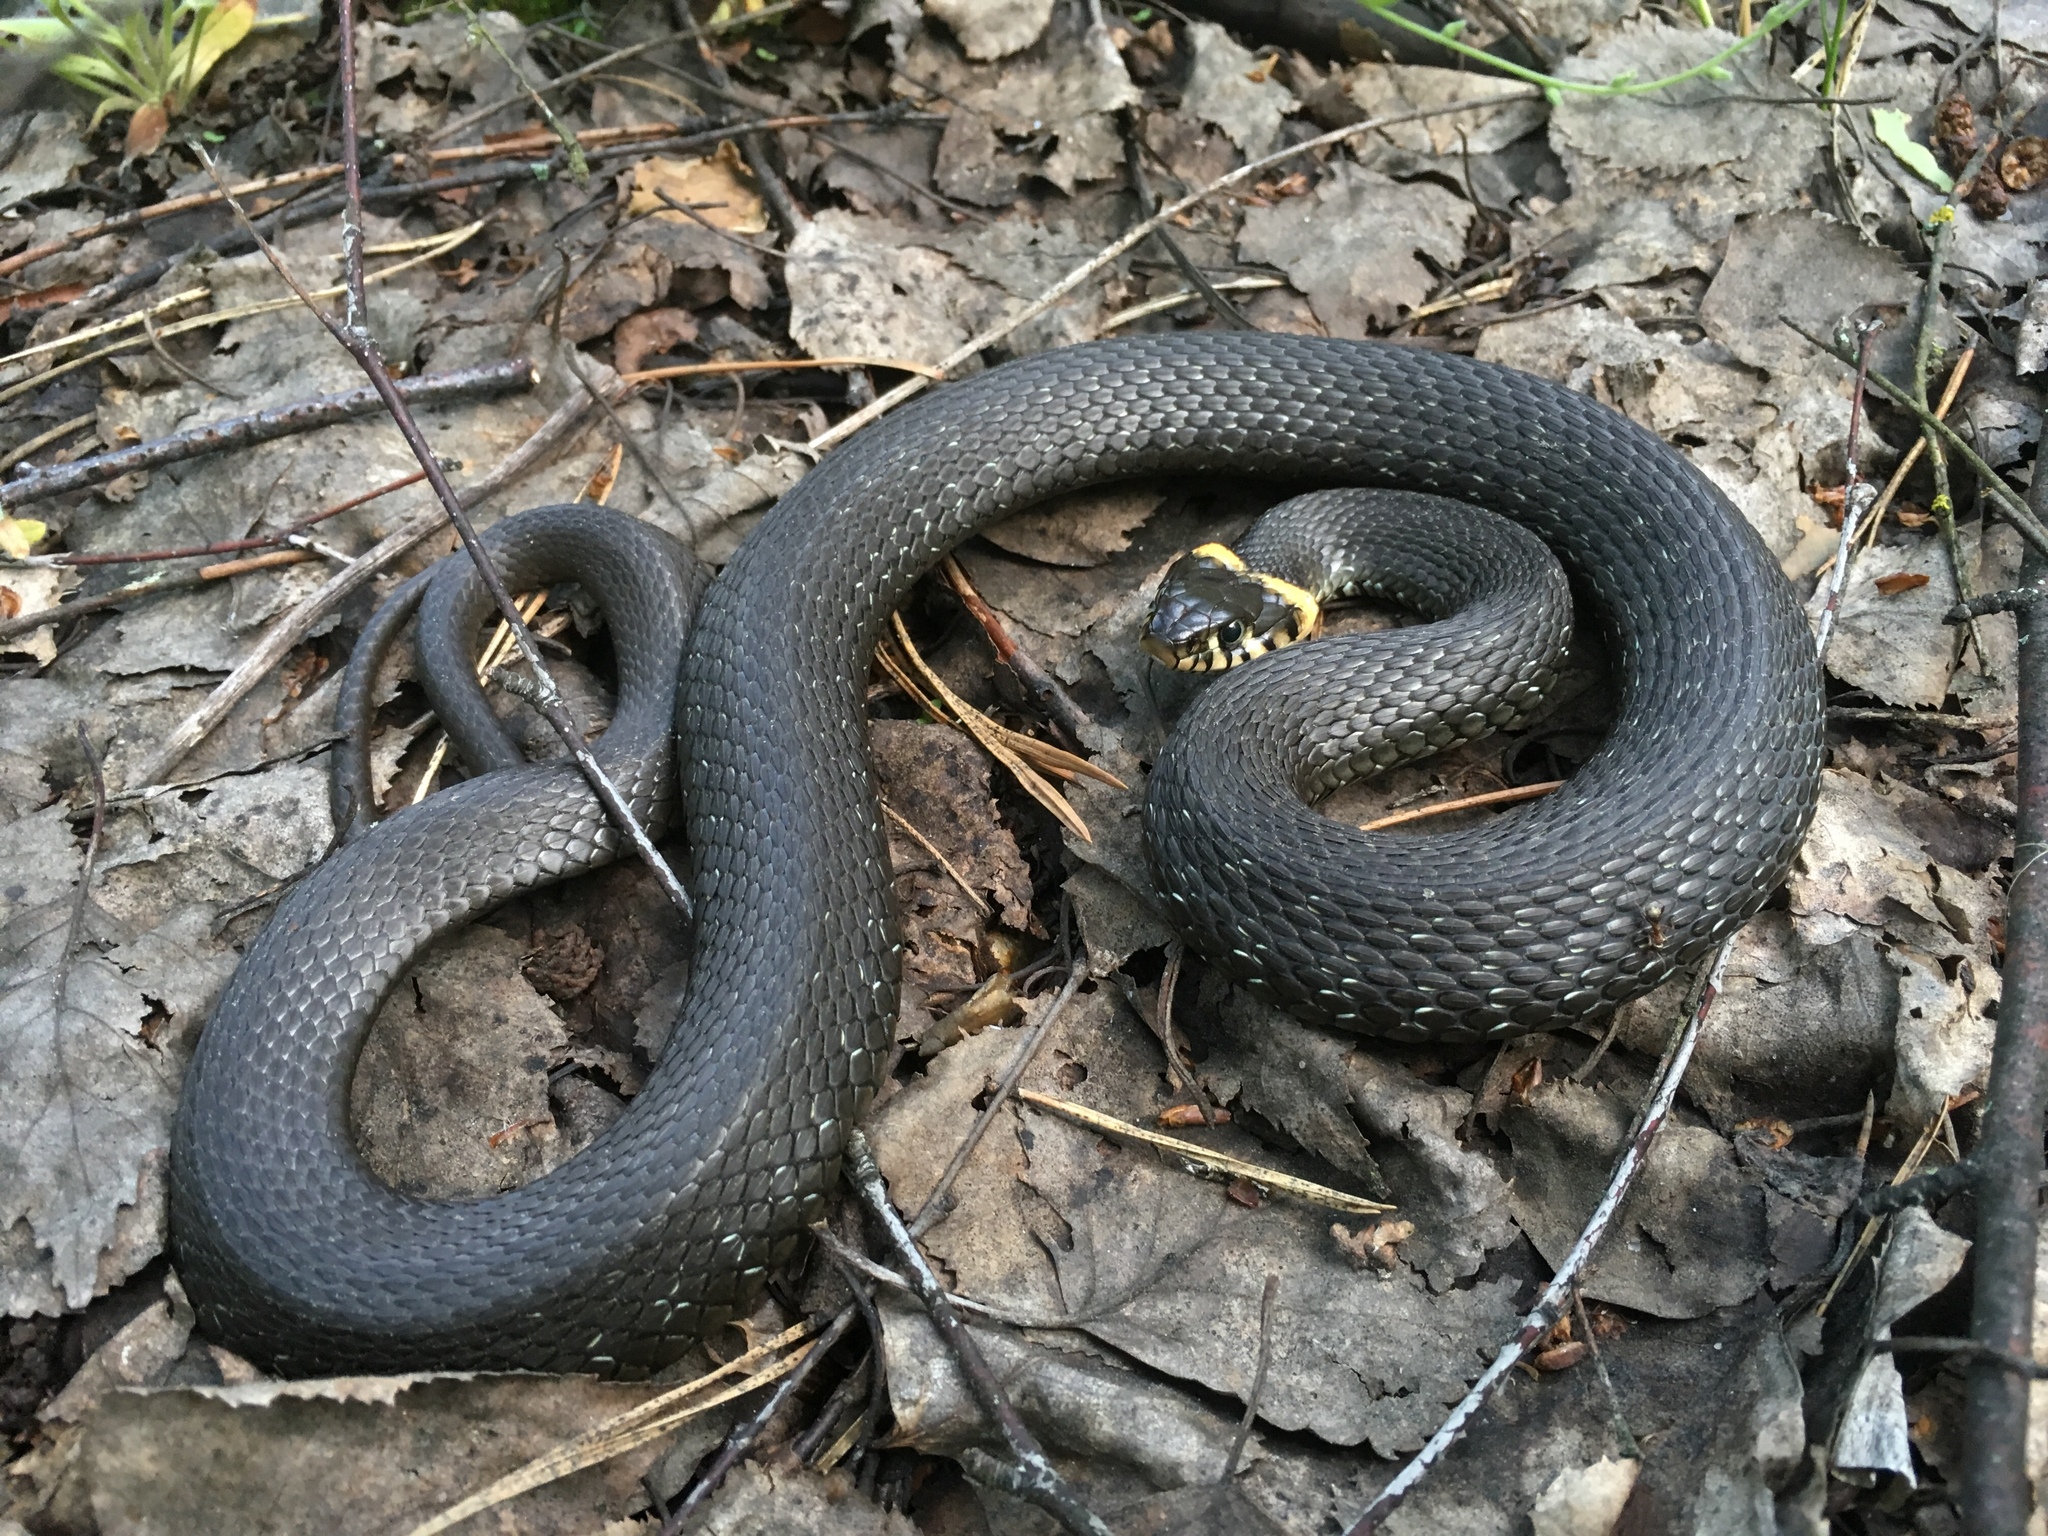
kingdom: Animalia
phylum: Chordata
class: Squamata
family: Colubridae
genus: Natrix
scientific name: Natrix natrix
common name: Grass snake
